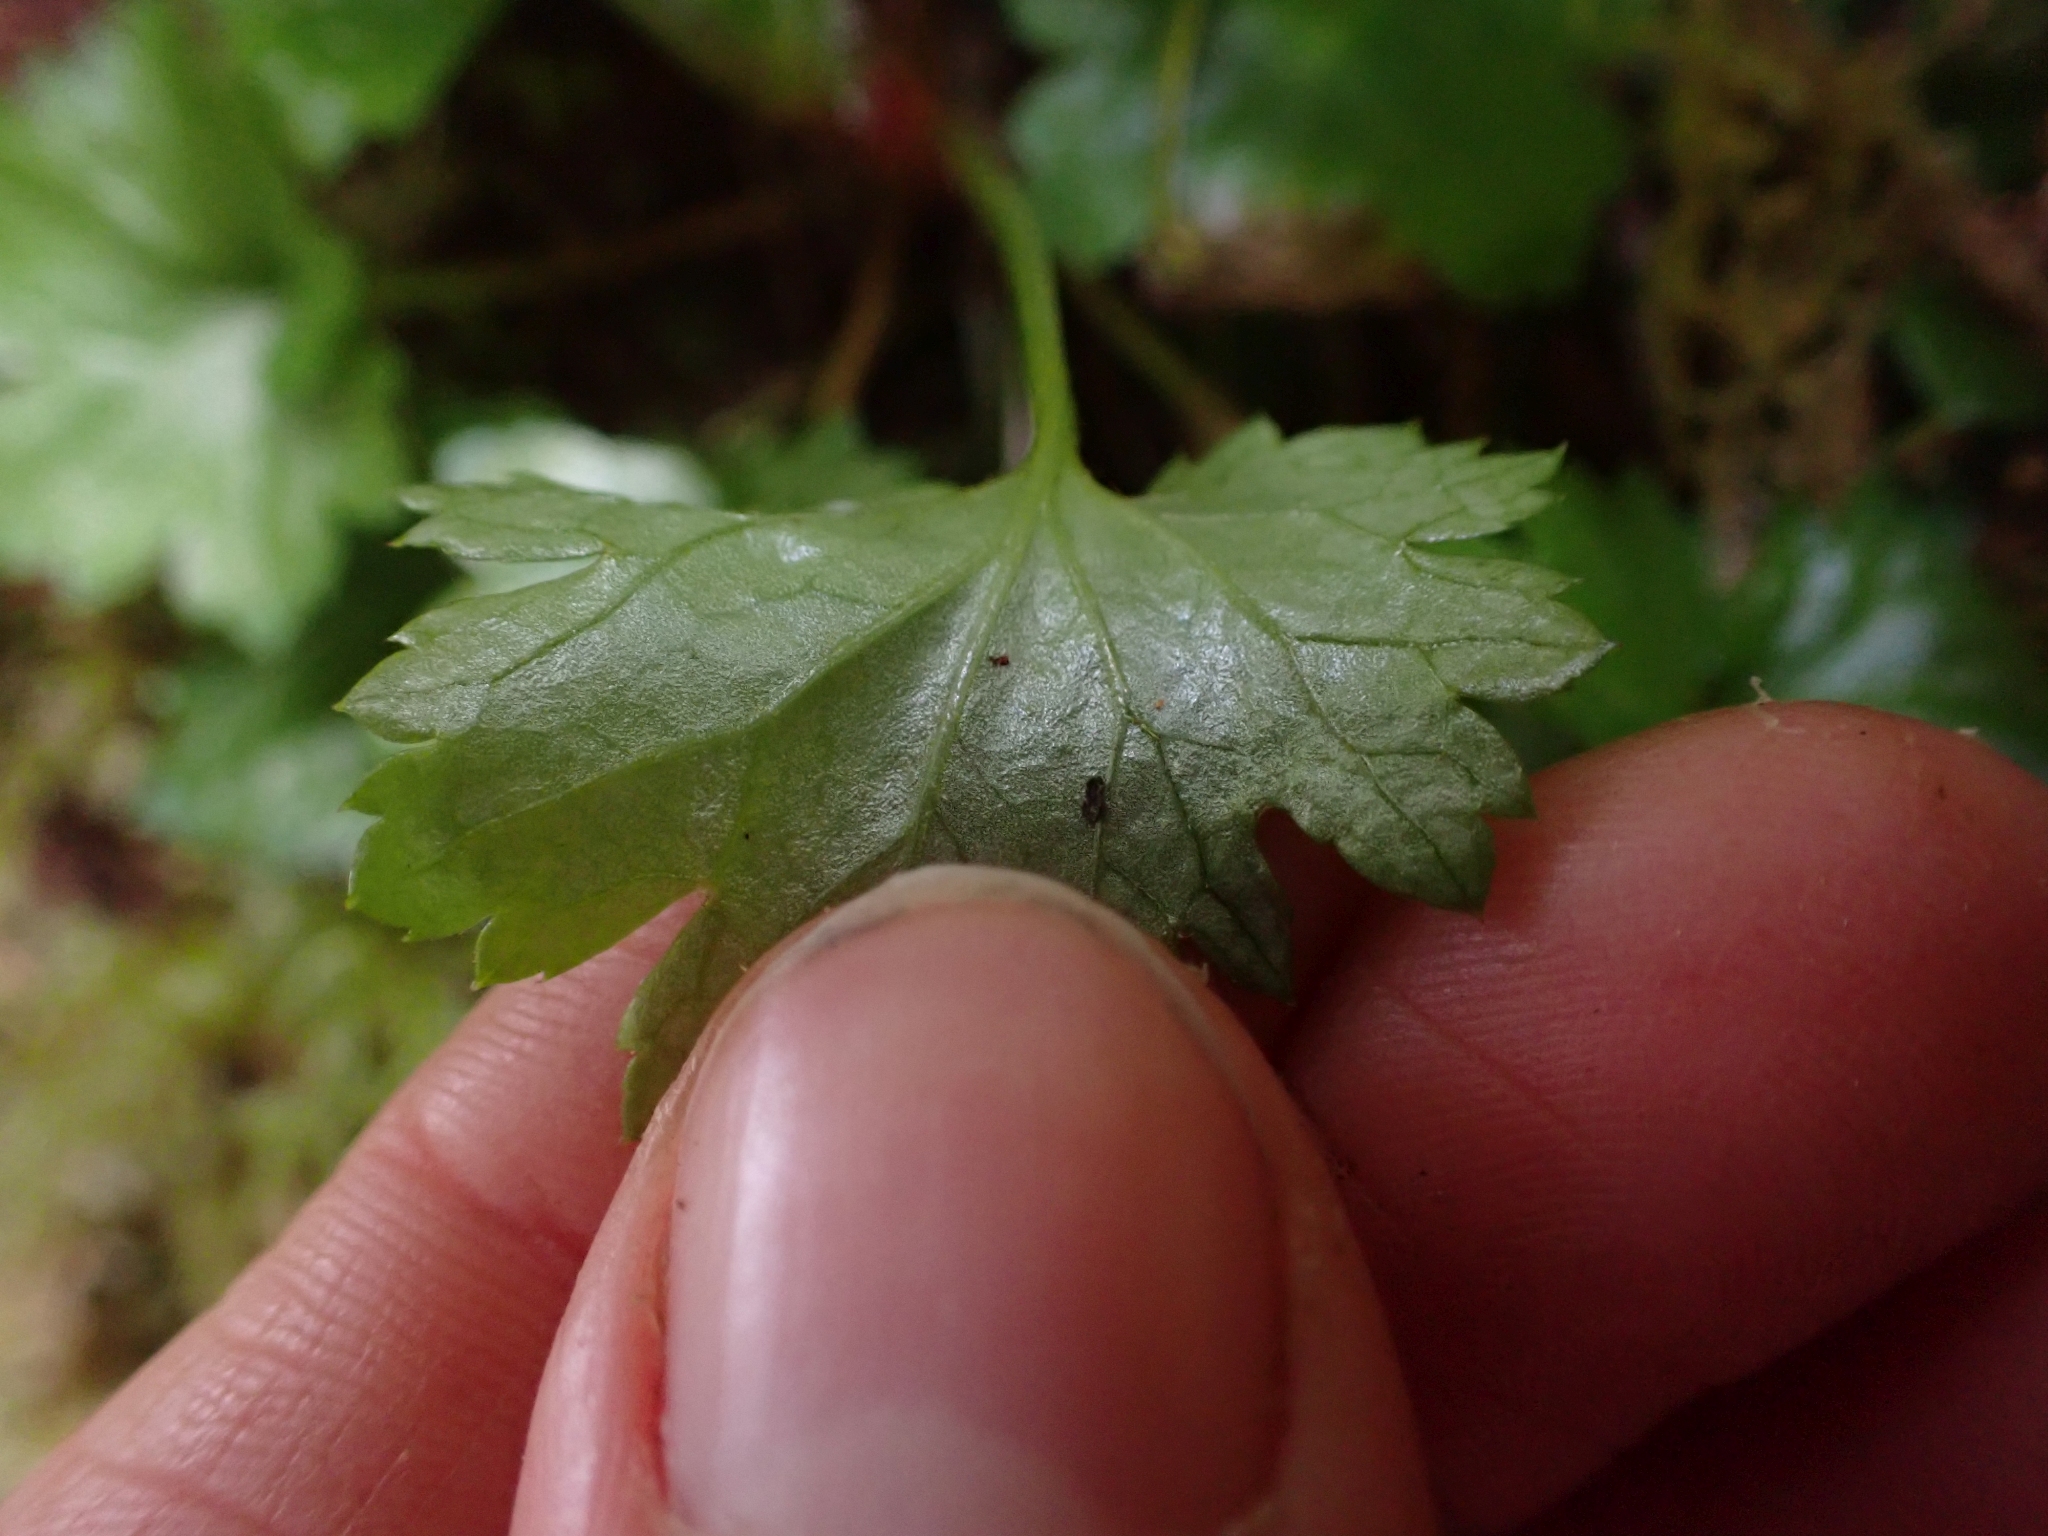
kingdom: Plantae
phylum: Tracheophyta
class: Magnoliopsida
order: Saxifragales
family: Saxifragaceae
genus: Boykinia
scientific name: Boykinia occidentalis
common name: Coast boykinia
